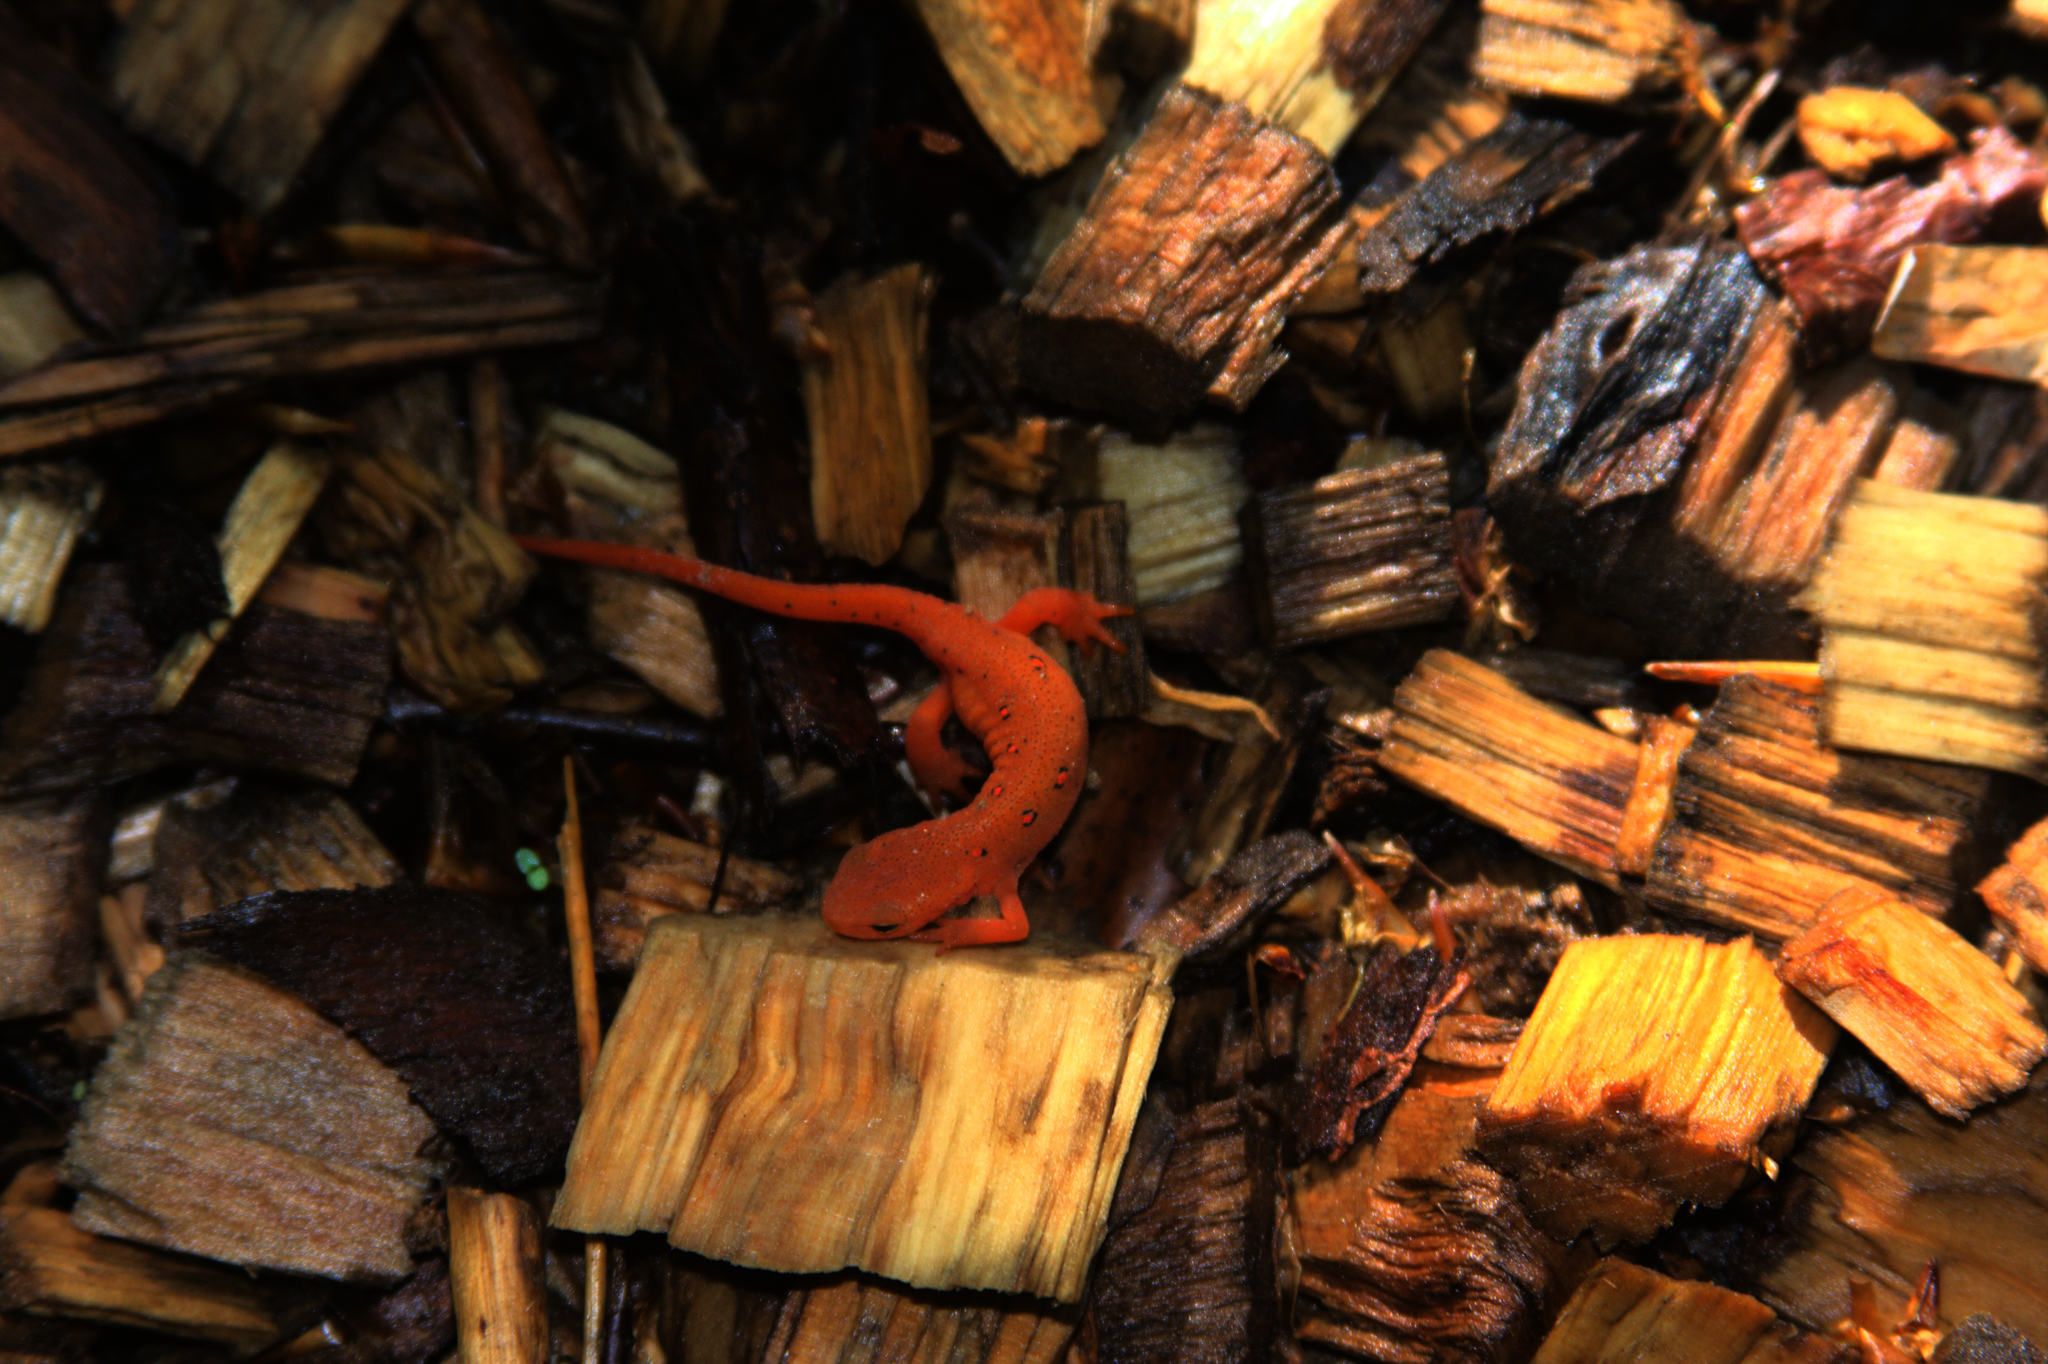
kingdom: Animalia
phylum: Chordata
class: Amphibia
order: Caudata
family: Salamandridae
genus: Notophthalmus
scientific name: Notophthalmus viridescens
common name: Eastern newt
